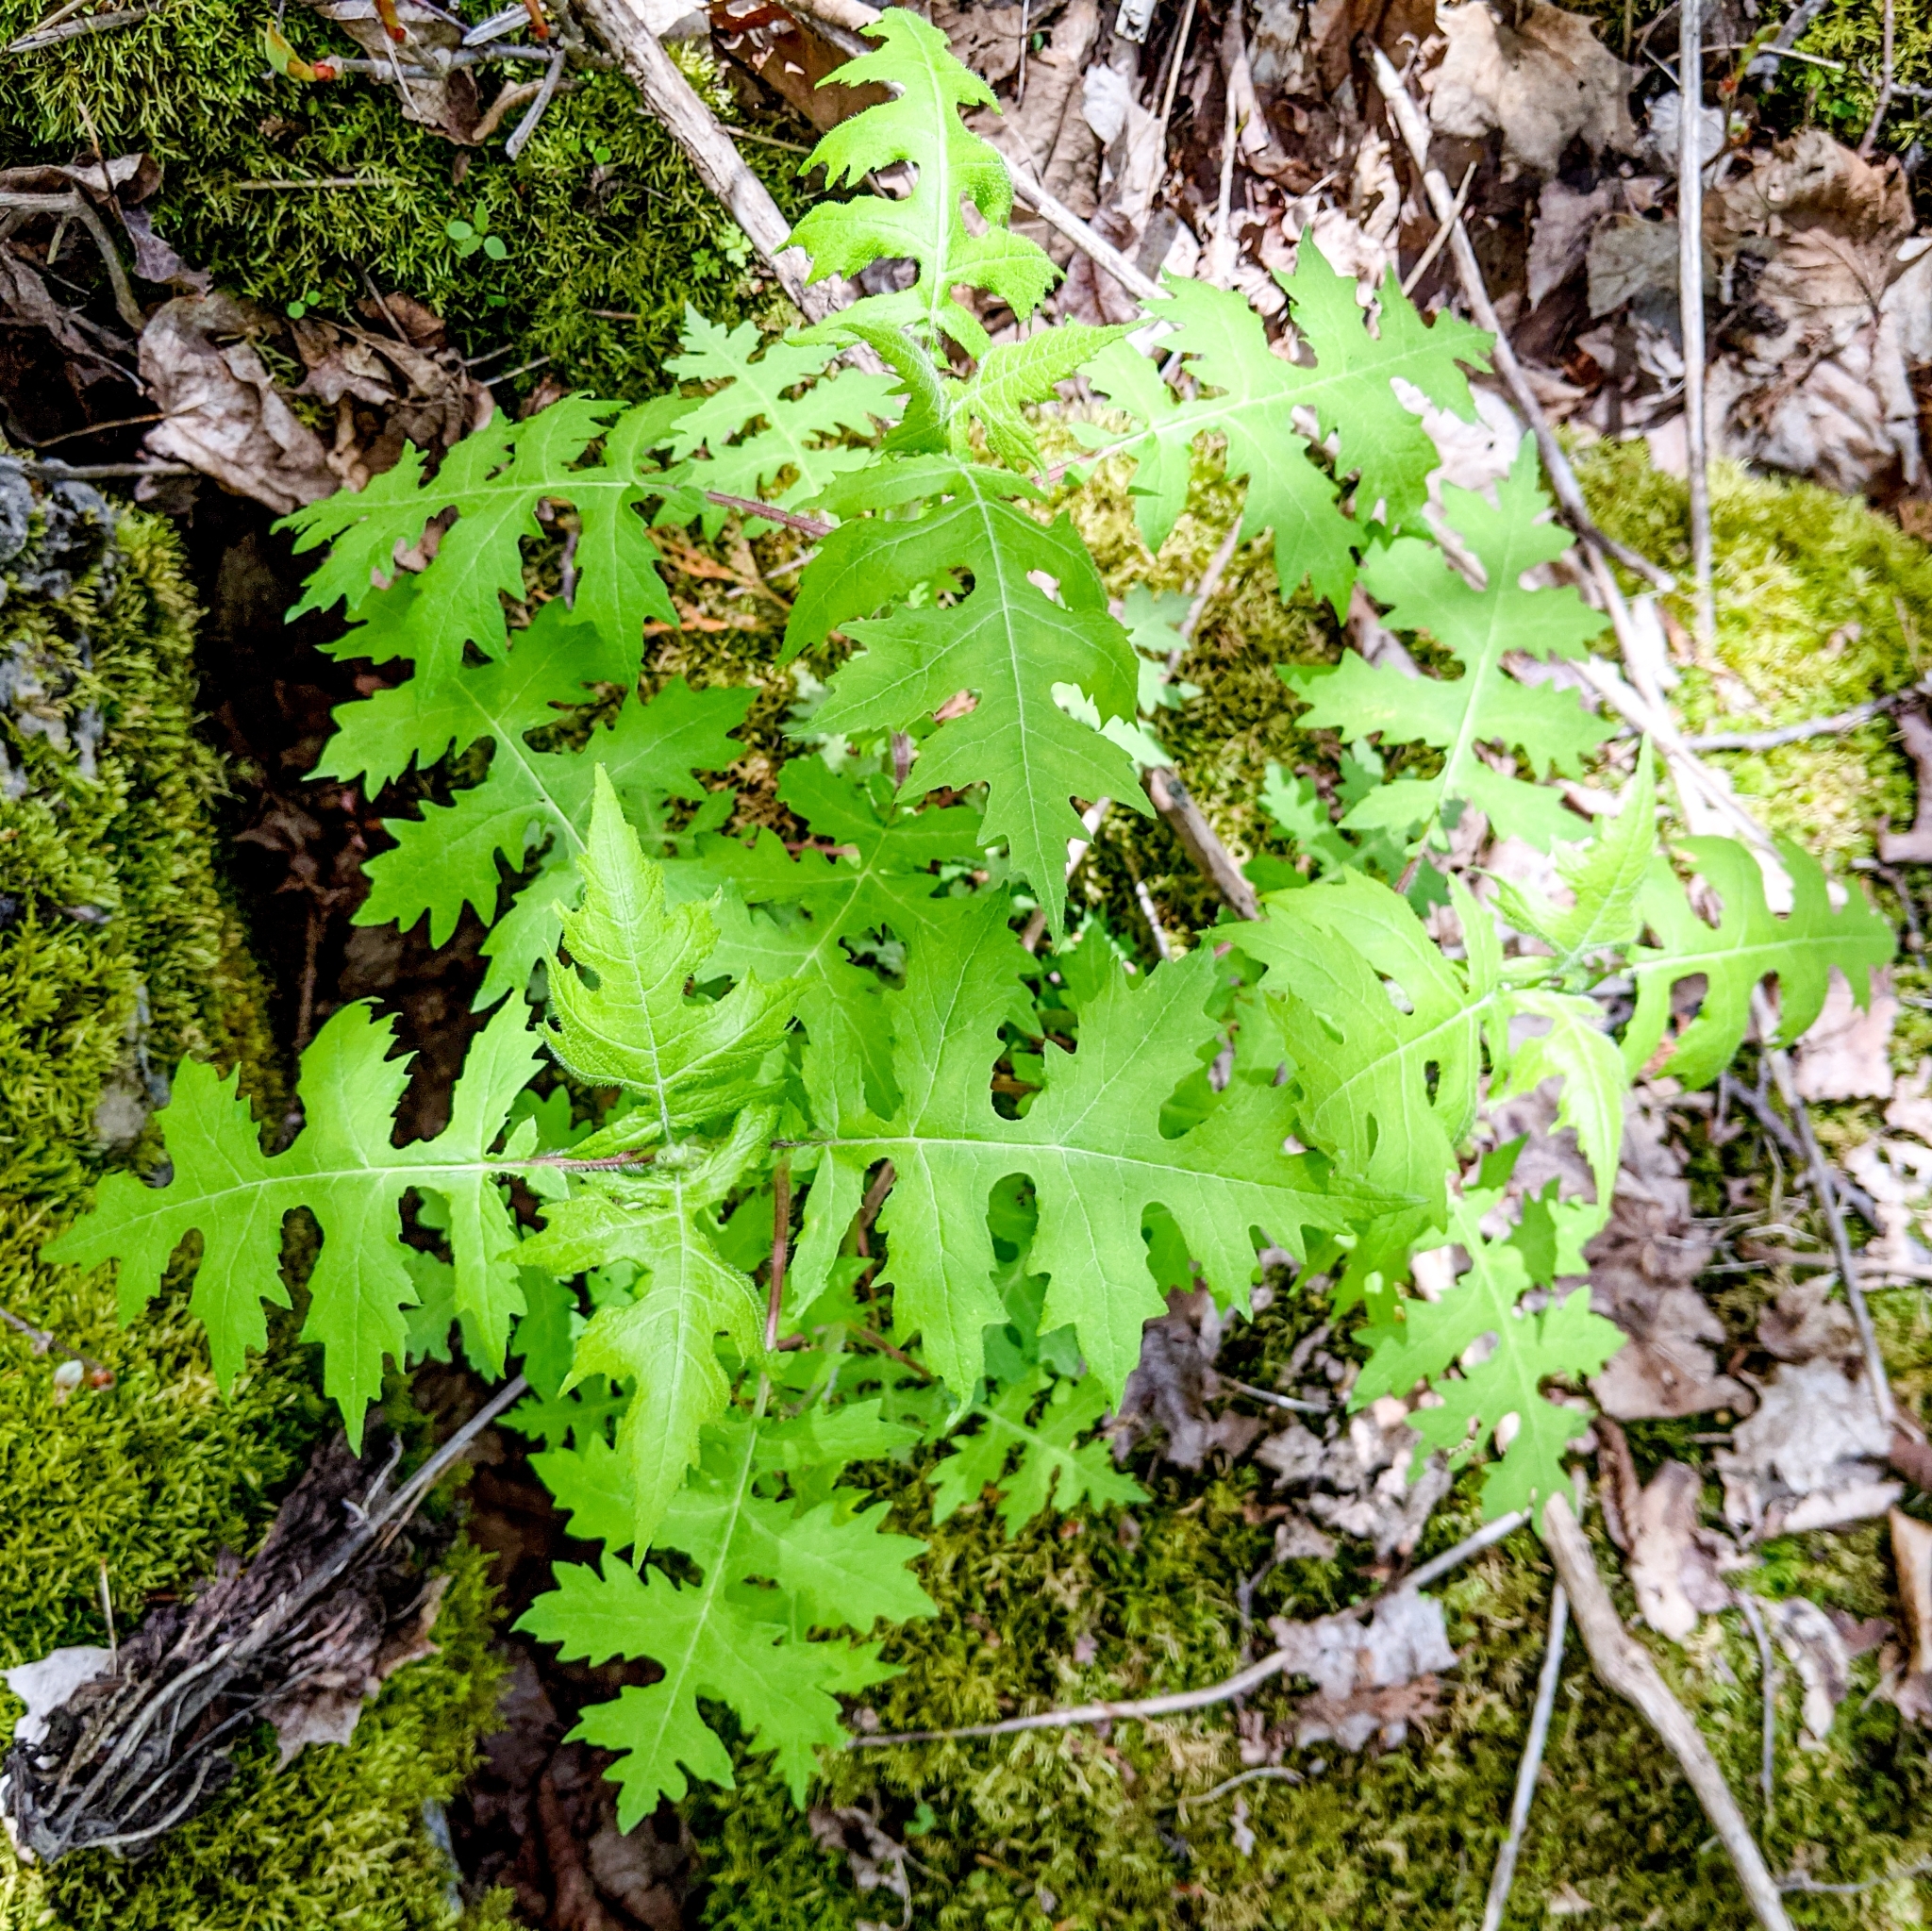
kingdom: Plantae
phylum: Tracheophyta
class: Magnoliopsida
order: Asterales
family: Asteraceae
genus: Polymnia
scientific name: Polymnia canadensis
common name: Pale-flowered leafcup
